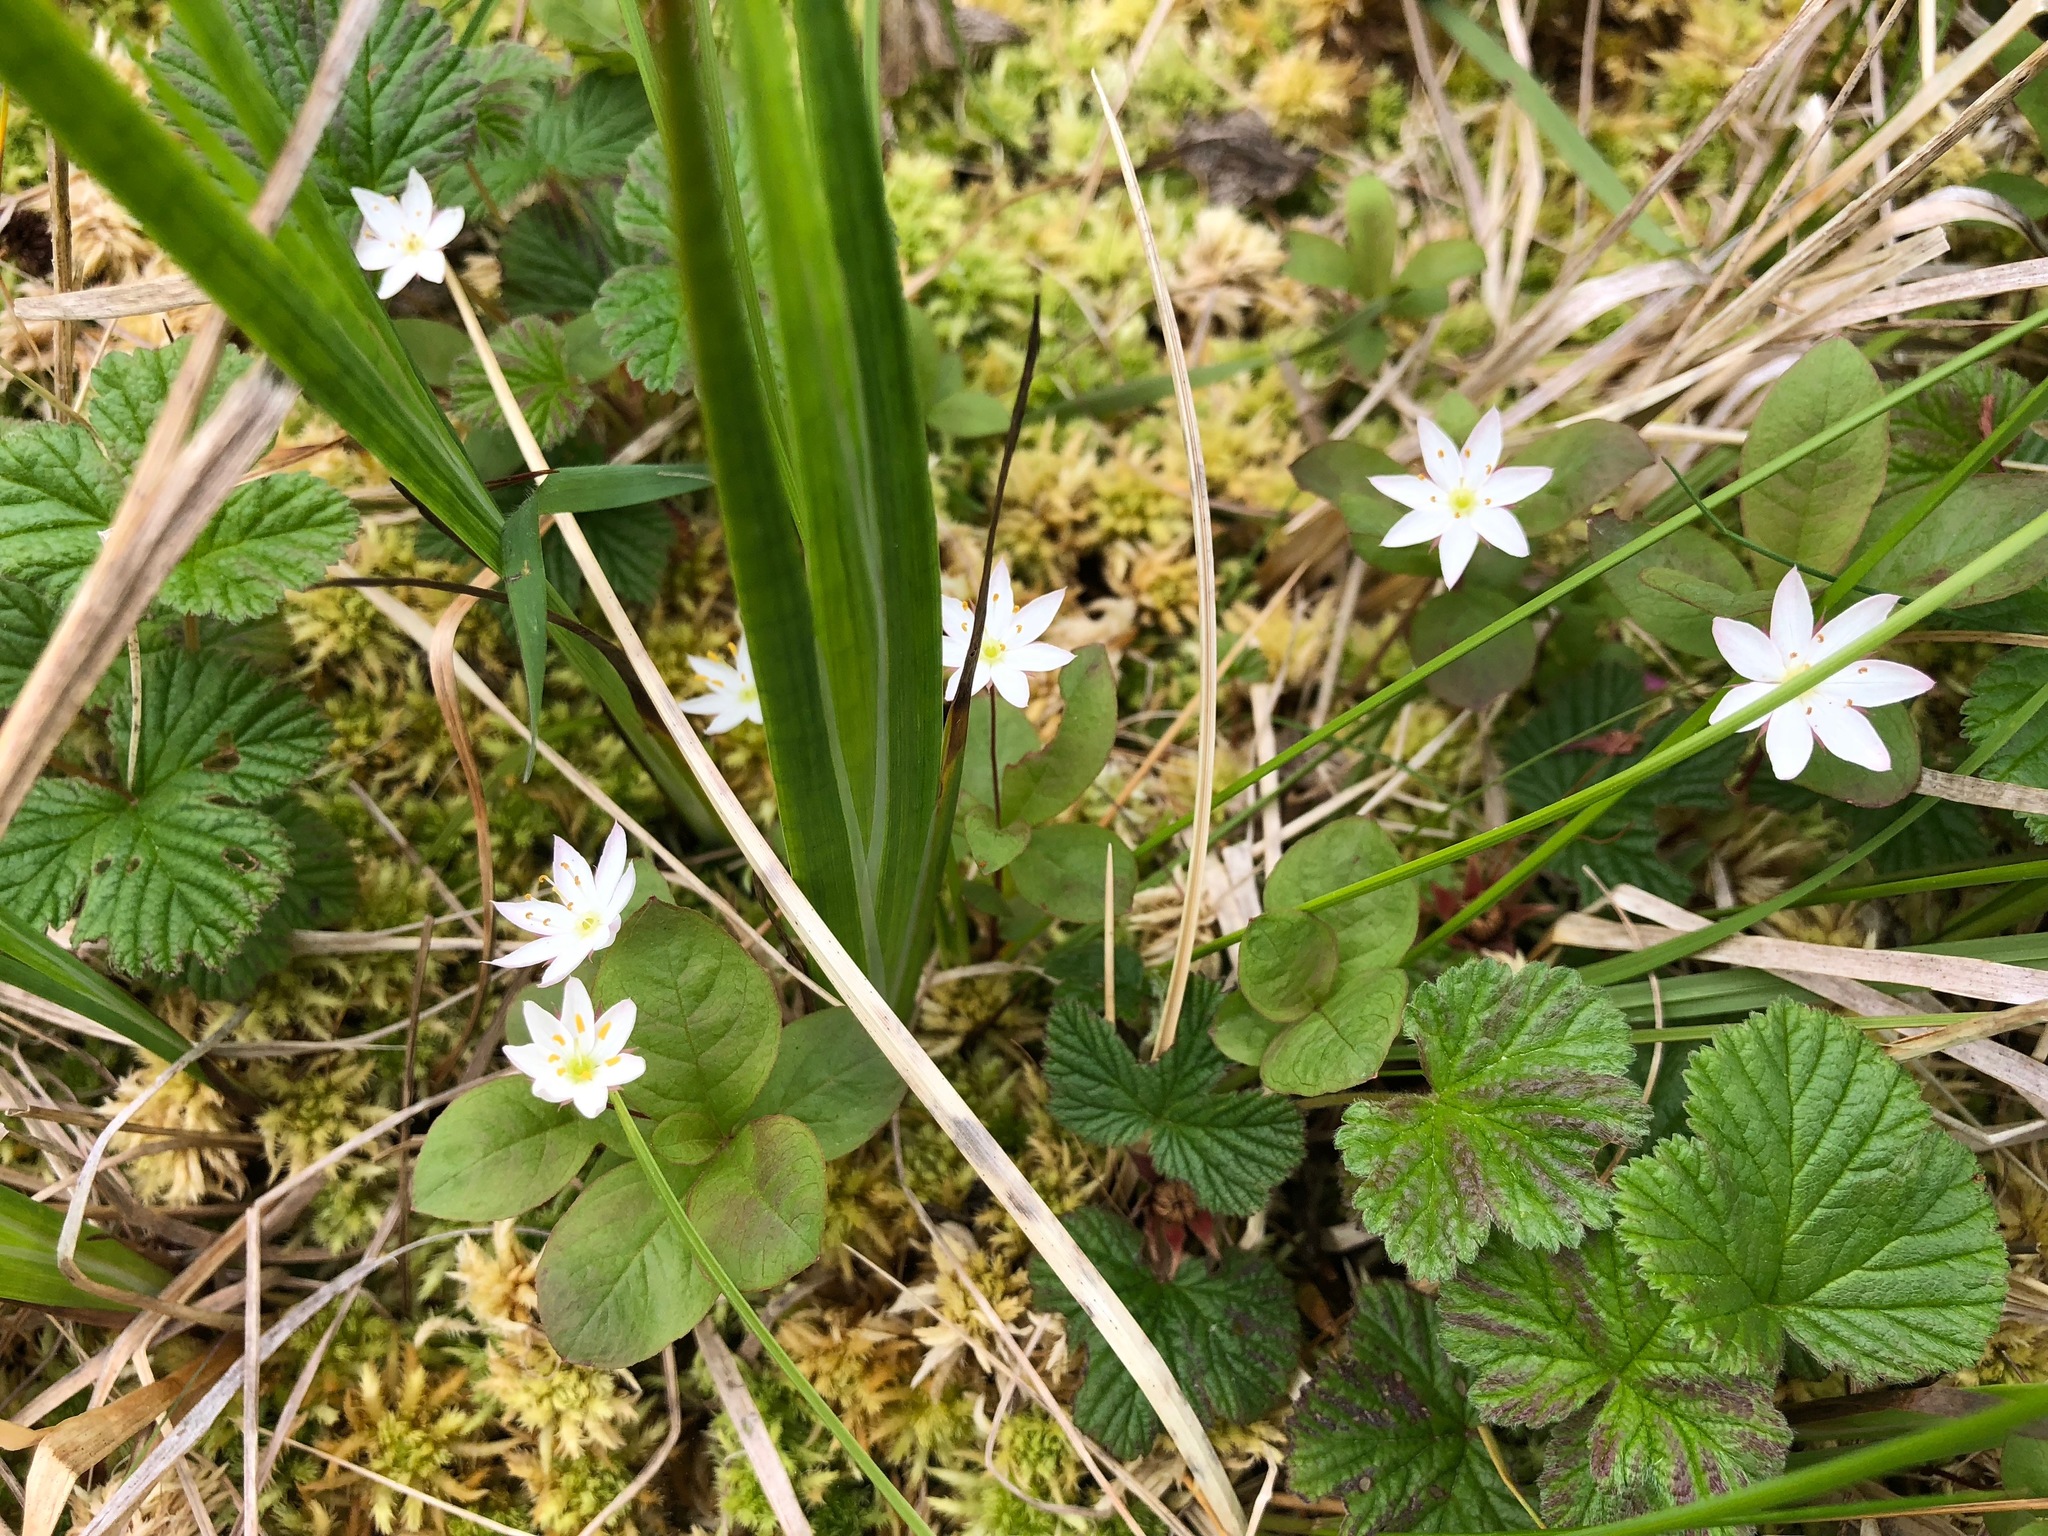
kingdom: Plantae
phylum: Tracheophyta
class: Magnoliopsida
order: Ericales
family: Primulaceae
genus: Lysimachia
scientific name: Lysimachia europaea
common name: Arctic starflower
